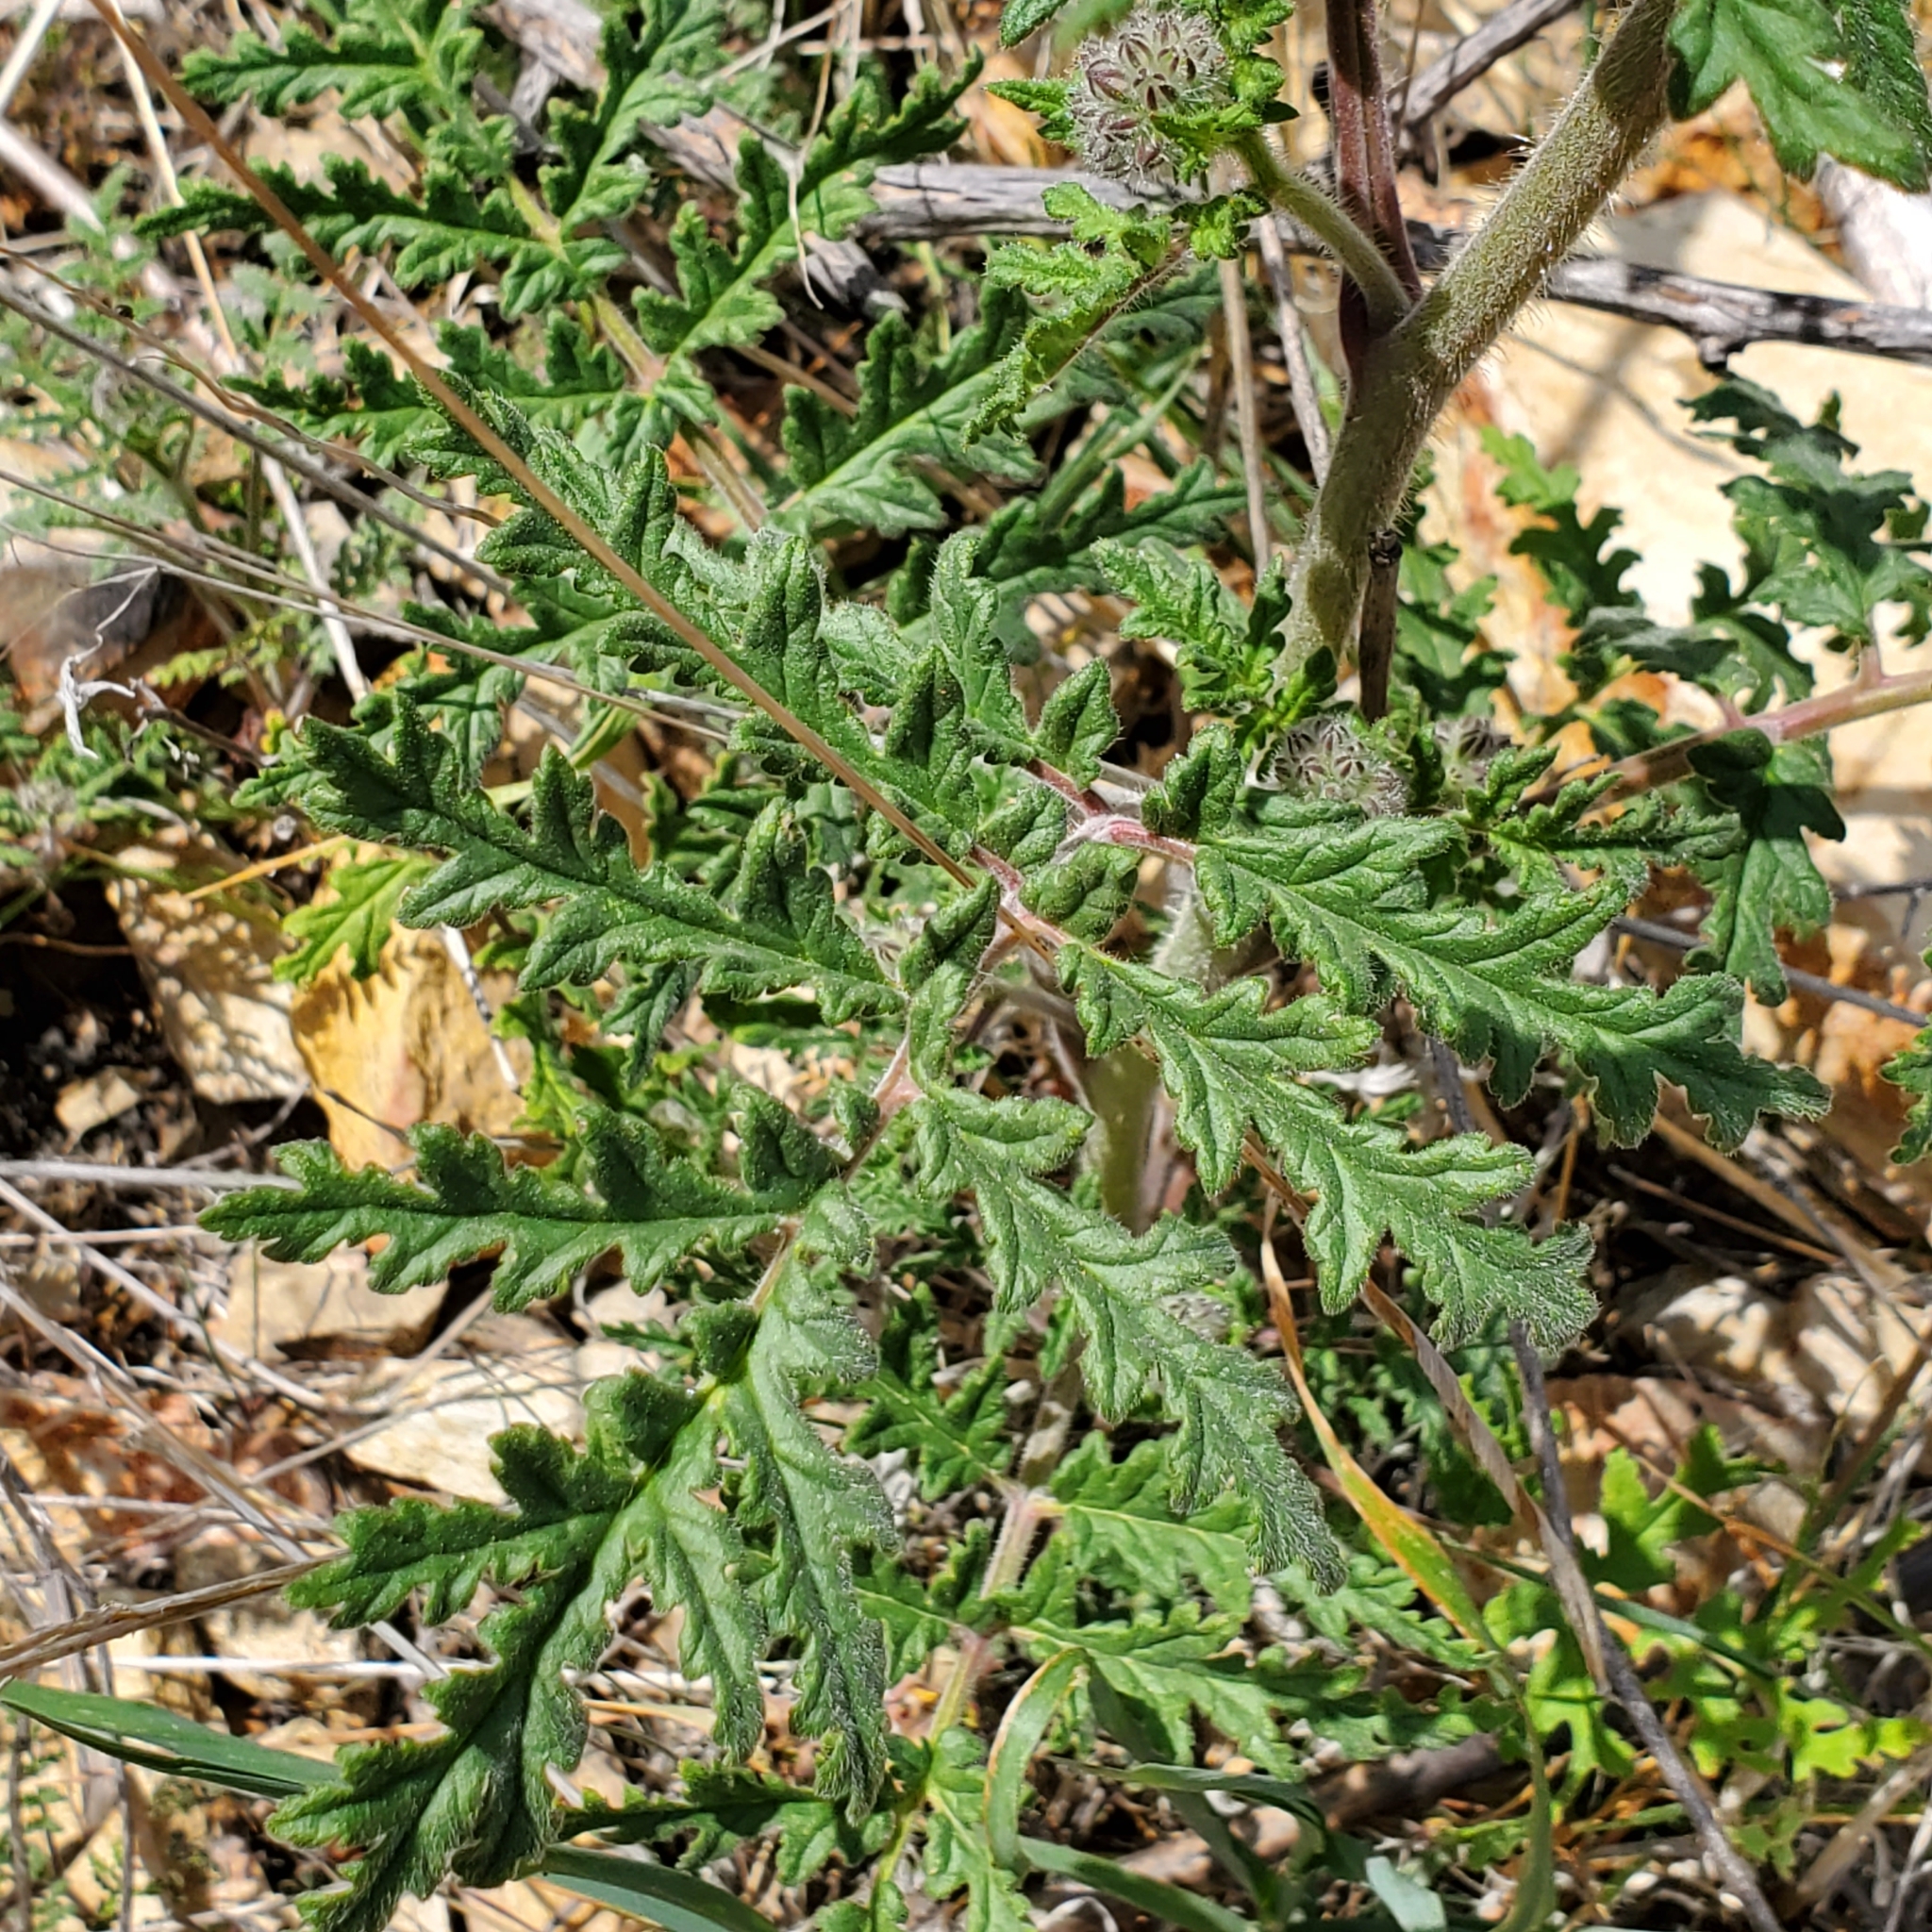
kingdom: Plantae
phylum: Tracheophyta
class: Magnoliopsida
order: Boraginales
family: Hydrophyllaceae
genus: Phacelia
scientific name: Phacelia hubbyi
